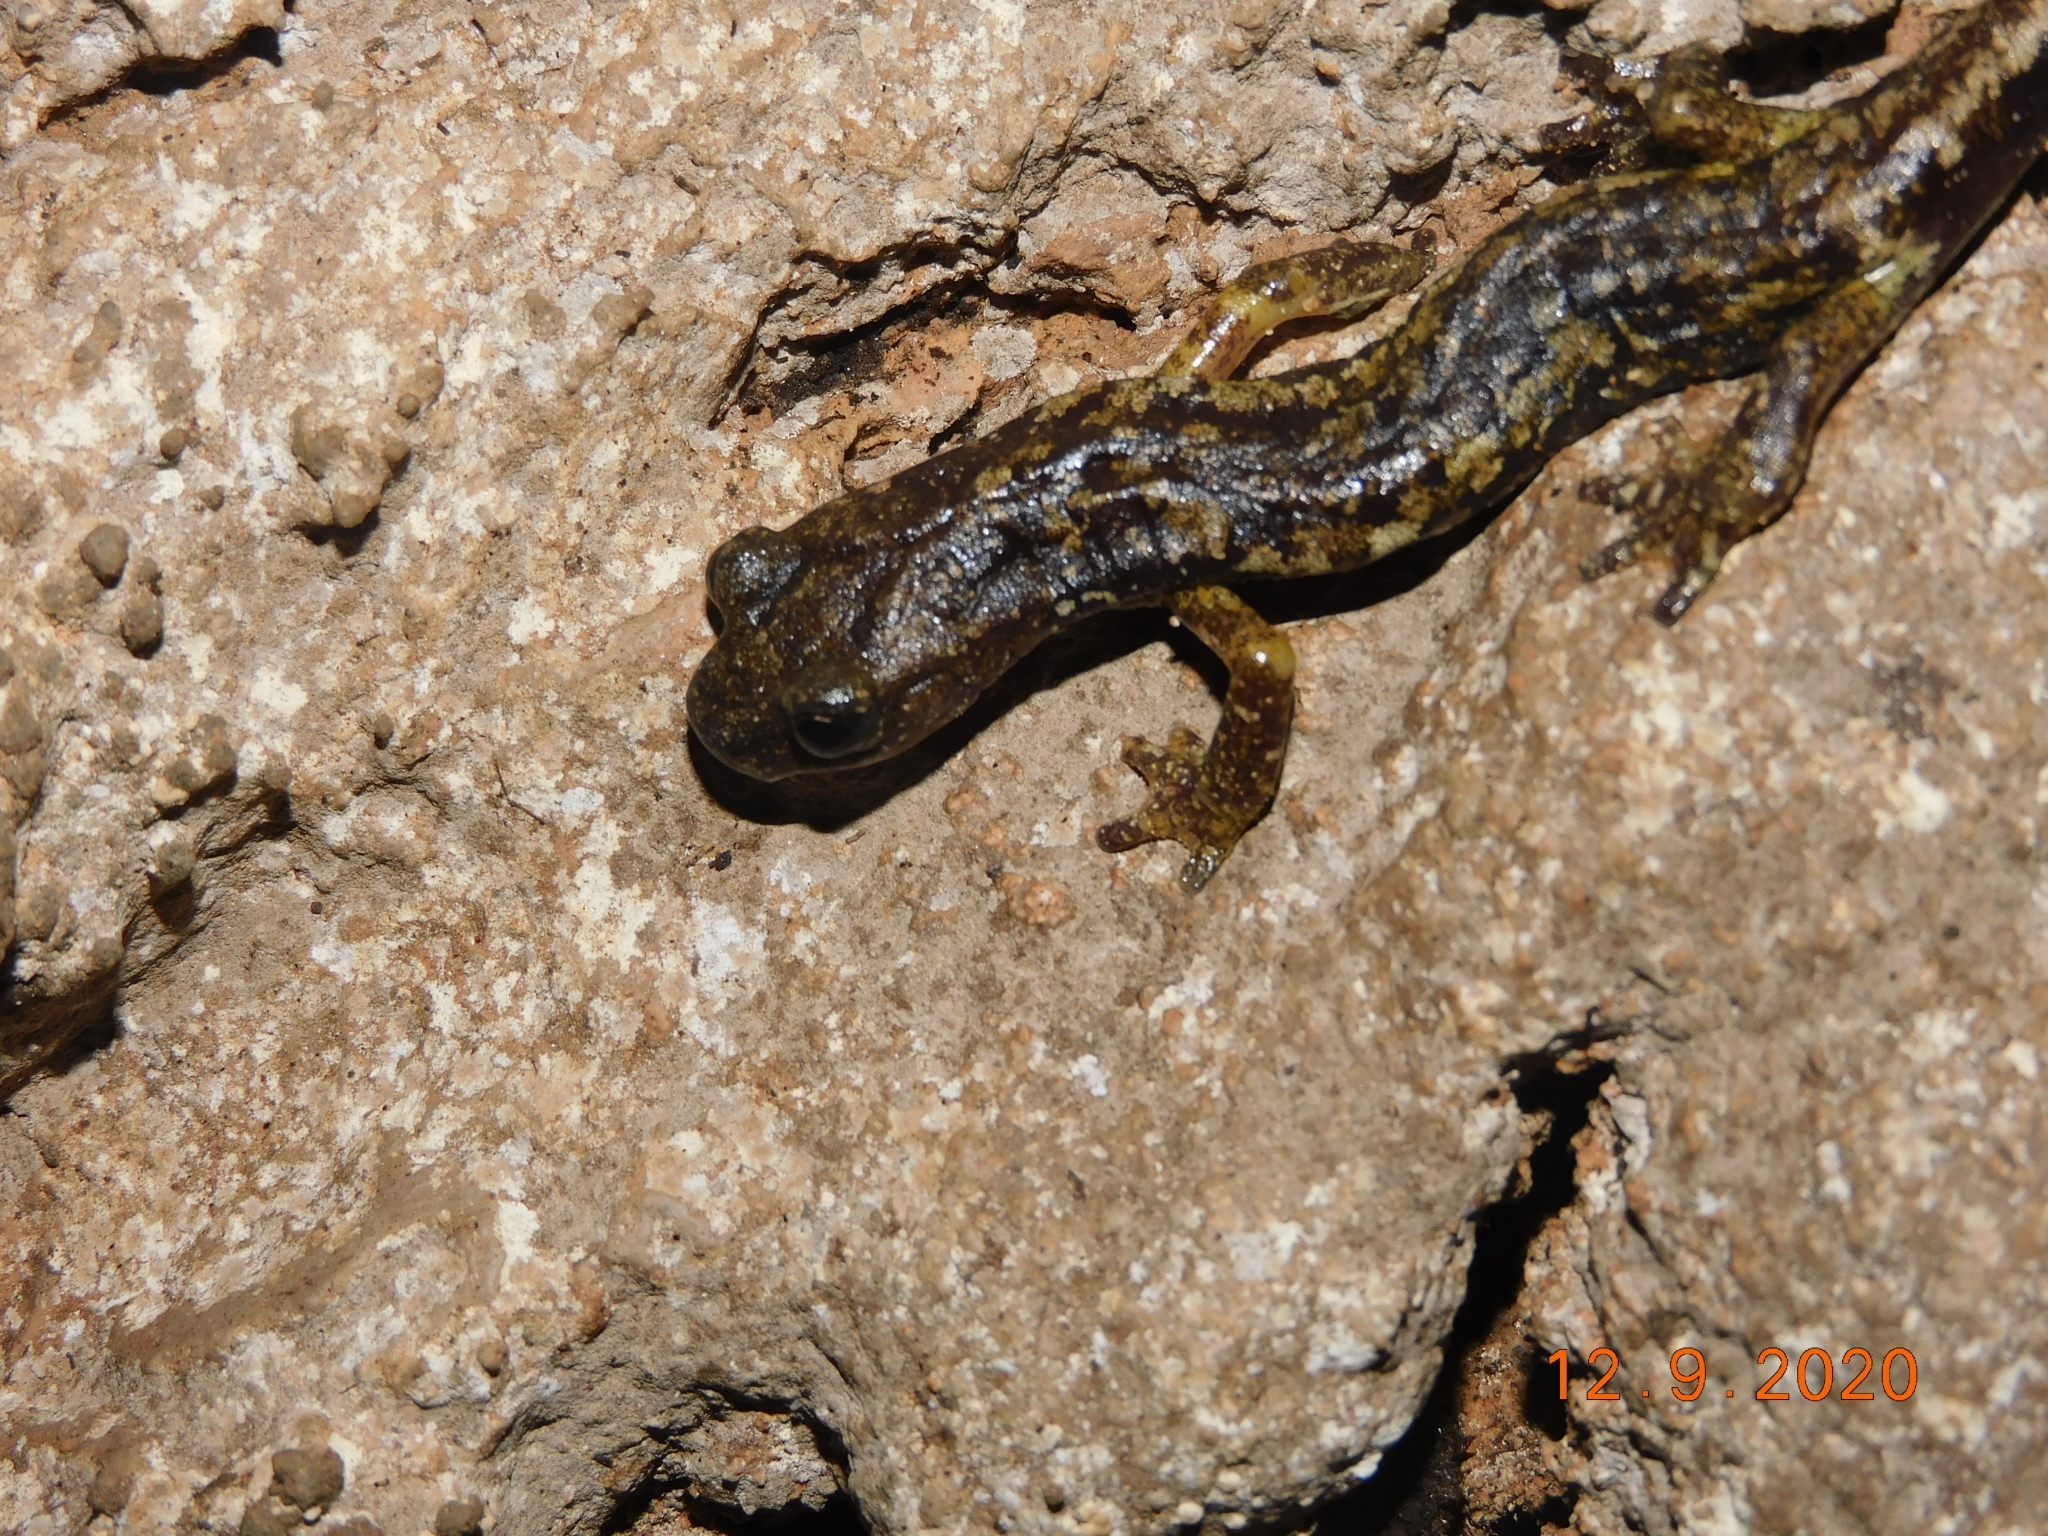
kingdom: Animalia
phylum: Chordata
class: Amphibia
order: Caudata
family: Plethodontidae
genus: Speleomantes
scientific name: Speleomantes ambrosii
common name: Ambrosi's cave salamander
